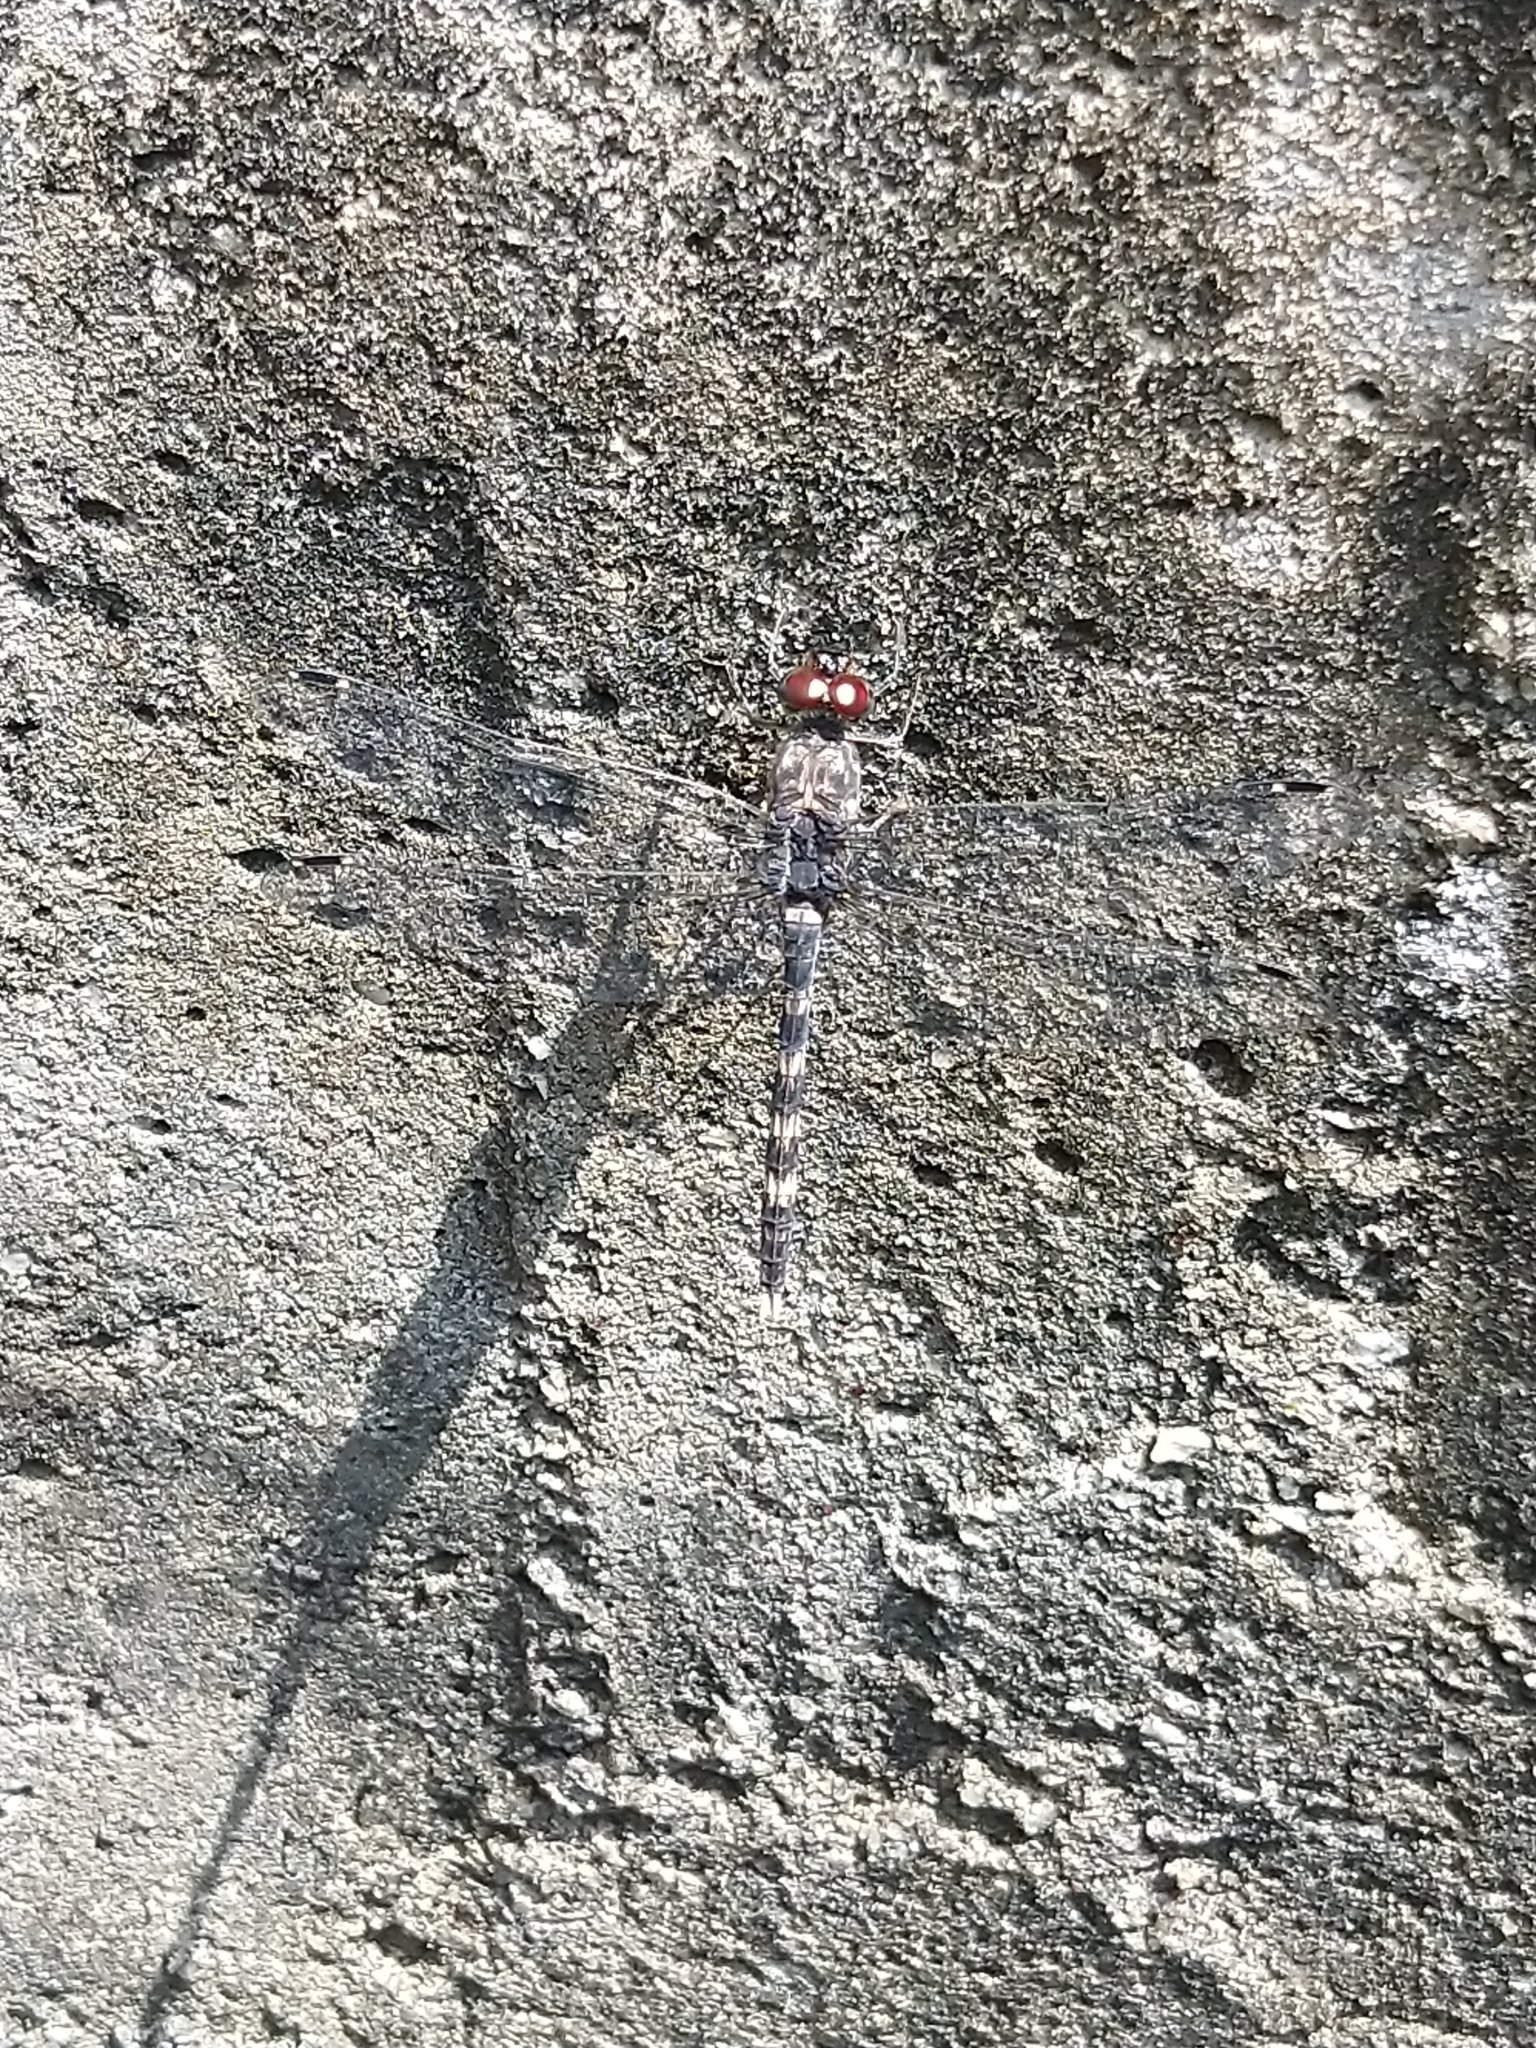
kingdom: Animalia
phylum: Arthropoda
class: Insecta
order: Odonata
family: Libellulidae
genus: Bradinopyga
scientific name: Bradinopyga geminata
